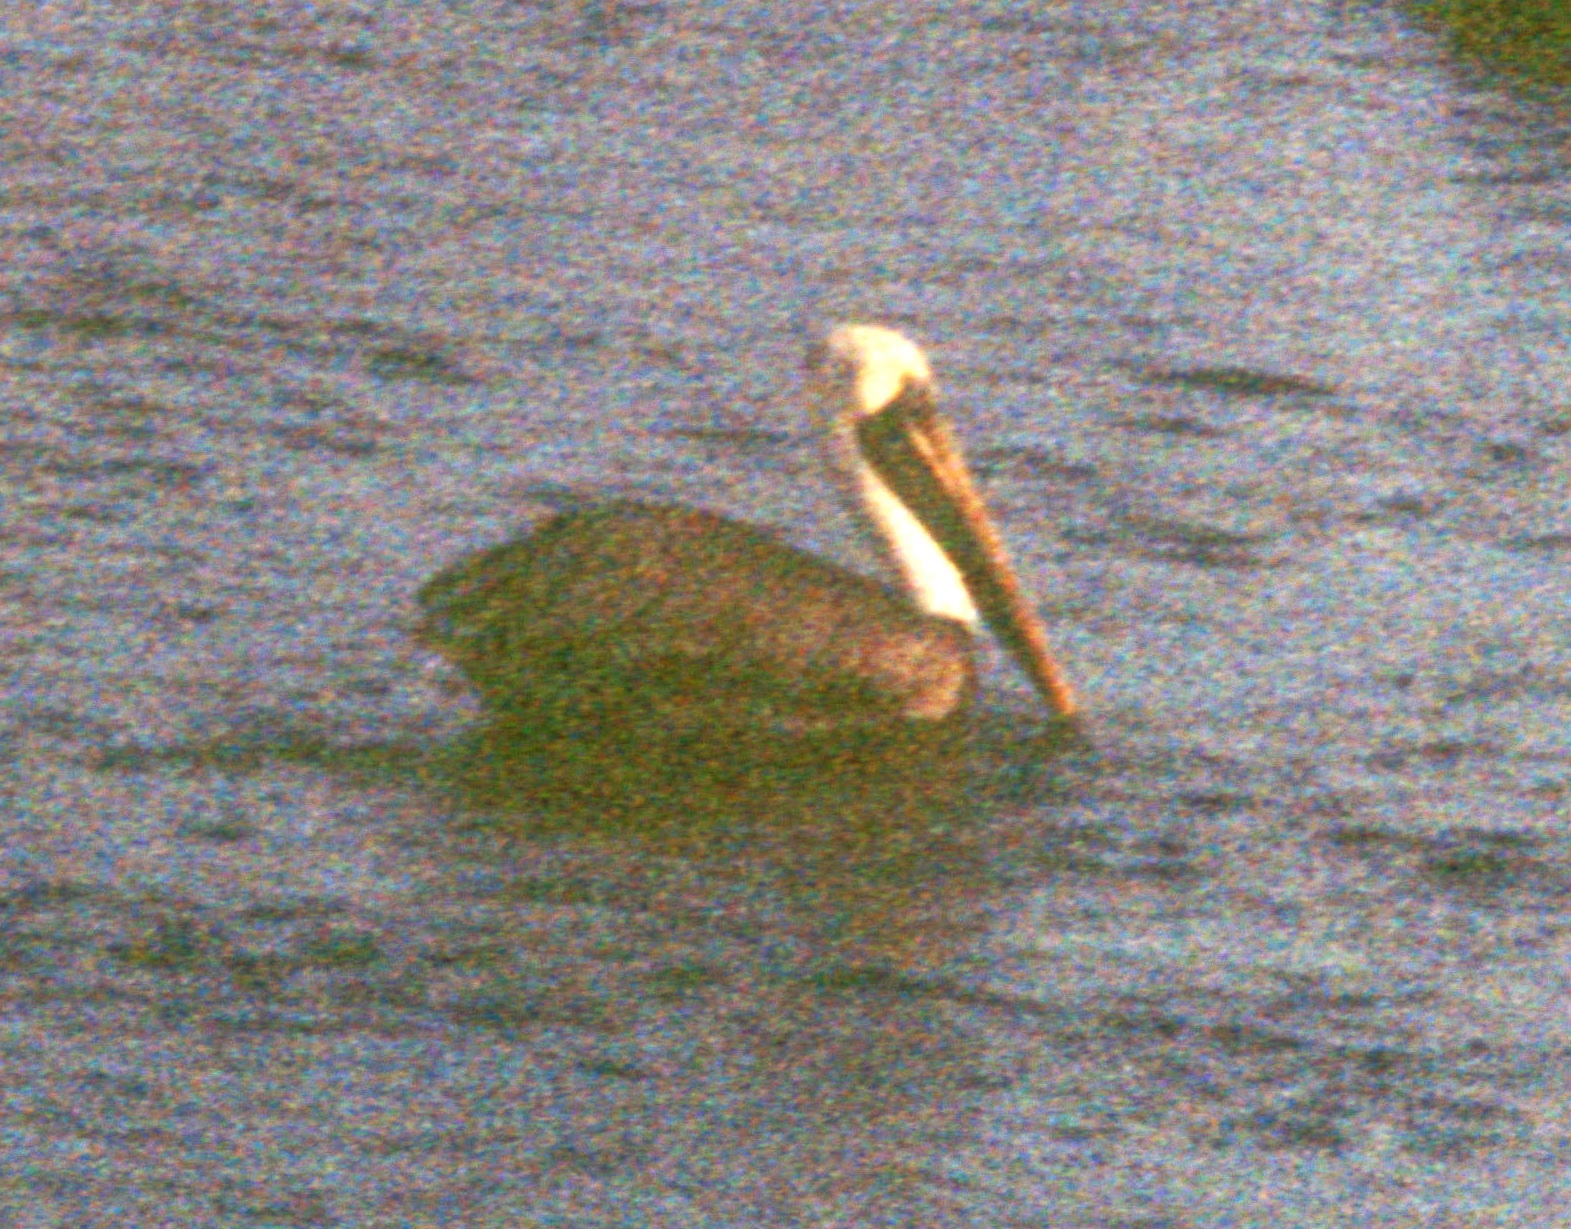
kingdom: Animalia
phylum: Chordata
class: Aves
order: Pelecaniformes
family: Pelecanidae
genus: Pelecanus
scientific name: Pelecanus occidentalis
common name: Brown pelican
